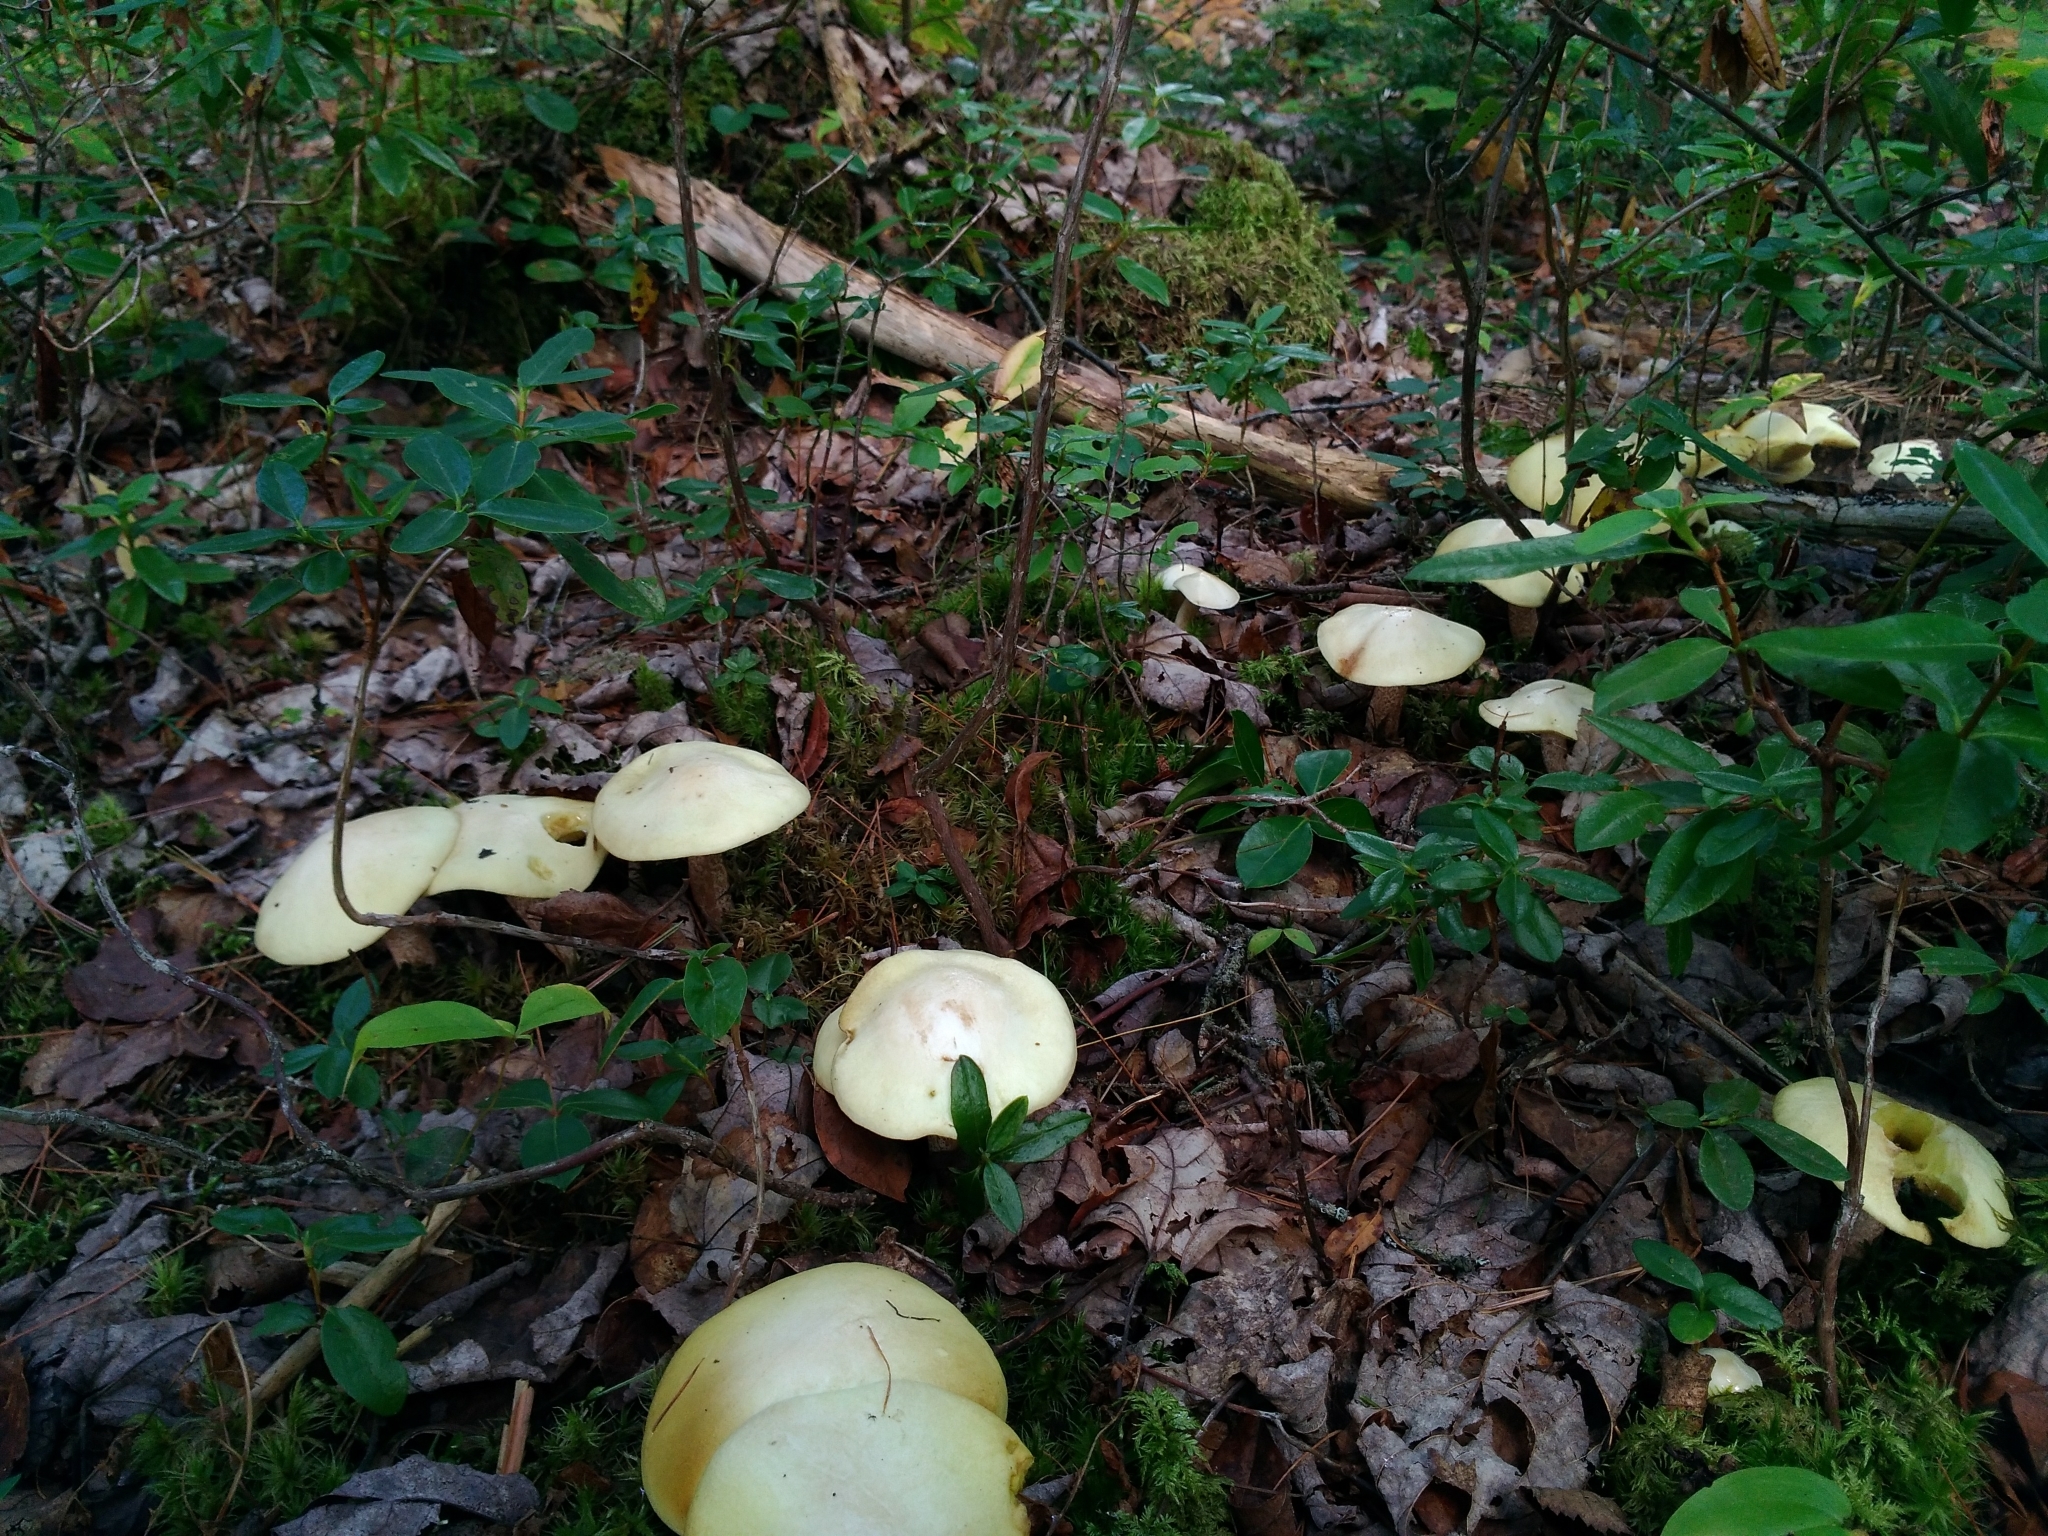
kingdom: Fungi
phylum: Basidiomycota
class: Agaricomycetes
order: Boletales
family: Suillaceae
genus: Suillus
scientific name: Suillus placidus
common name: Slippery white bolete
